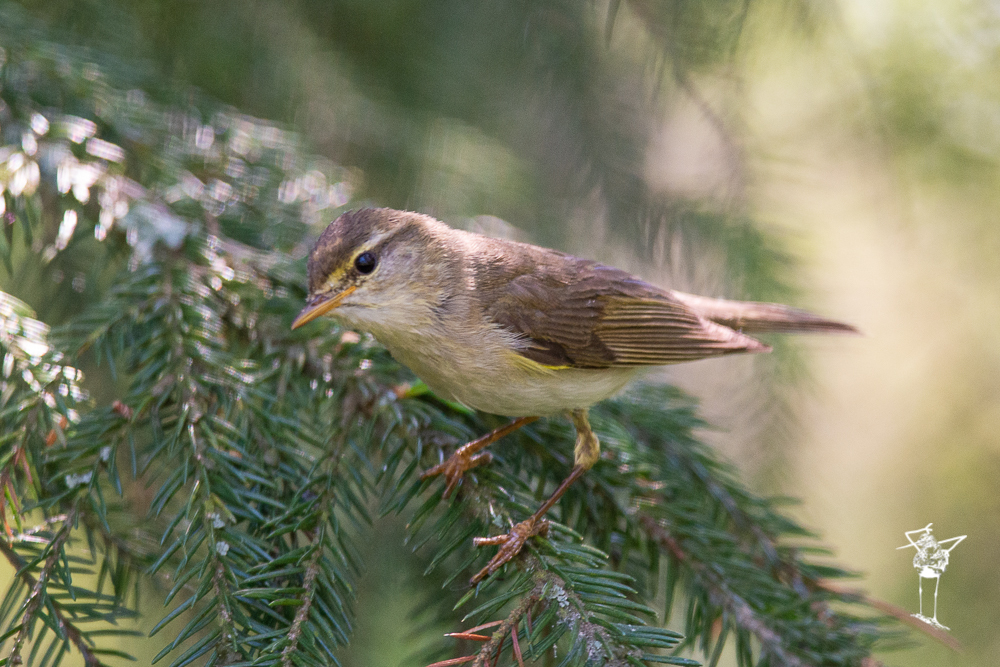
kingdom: Animalia
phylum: Chordata
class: Aves
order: Passeriformes
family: Phylloscopidae
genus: Phylloscopus
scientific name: Phylloscopus trochilus
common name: Willow warbler
